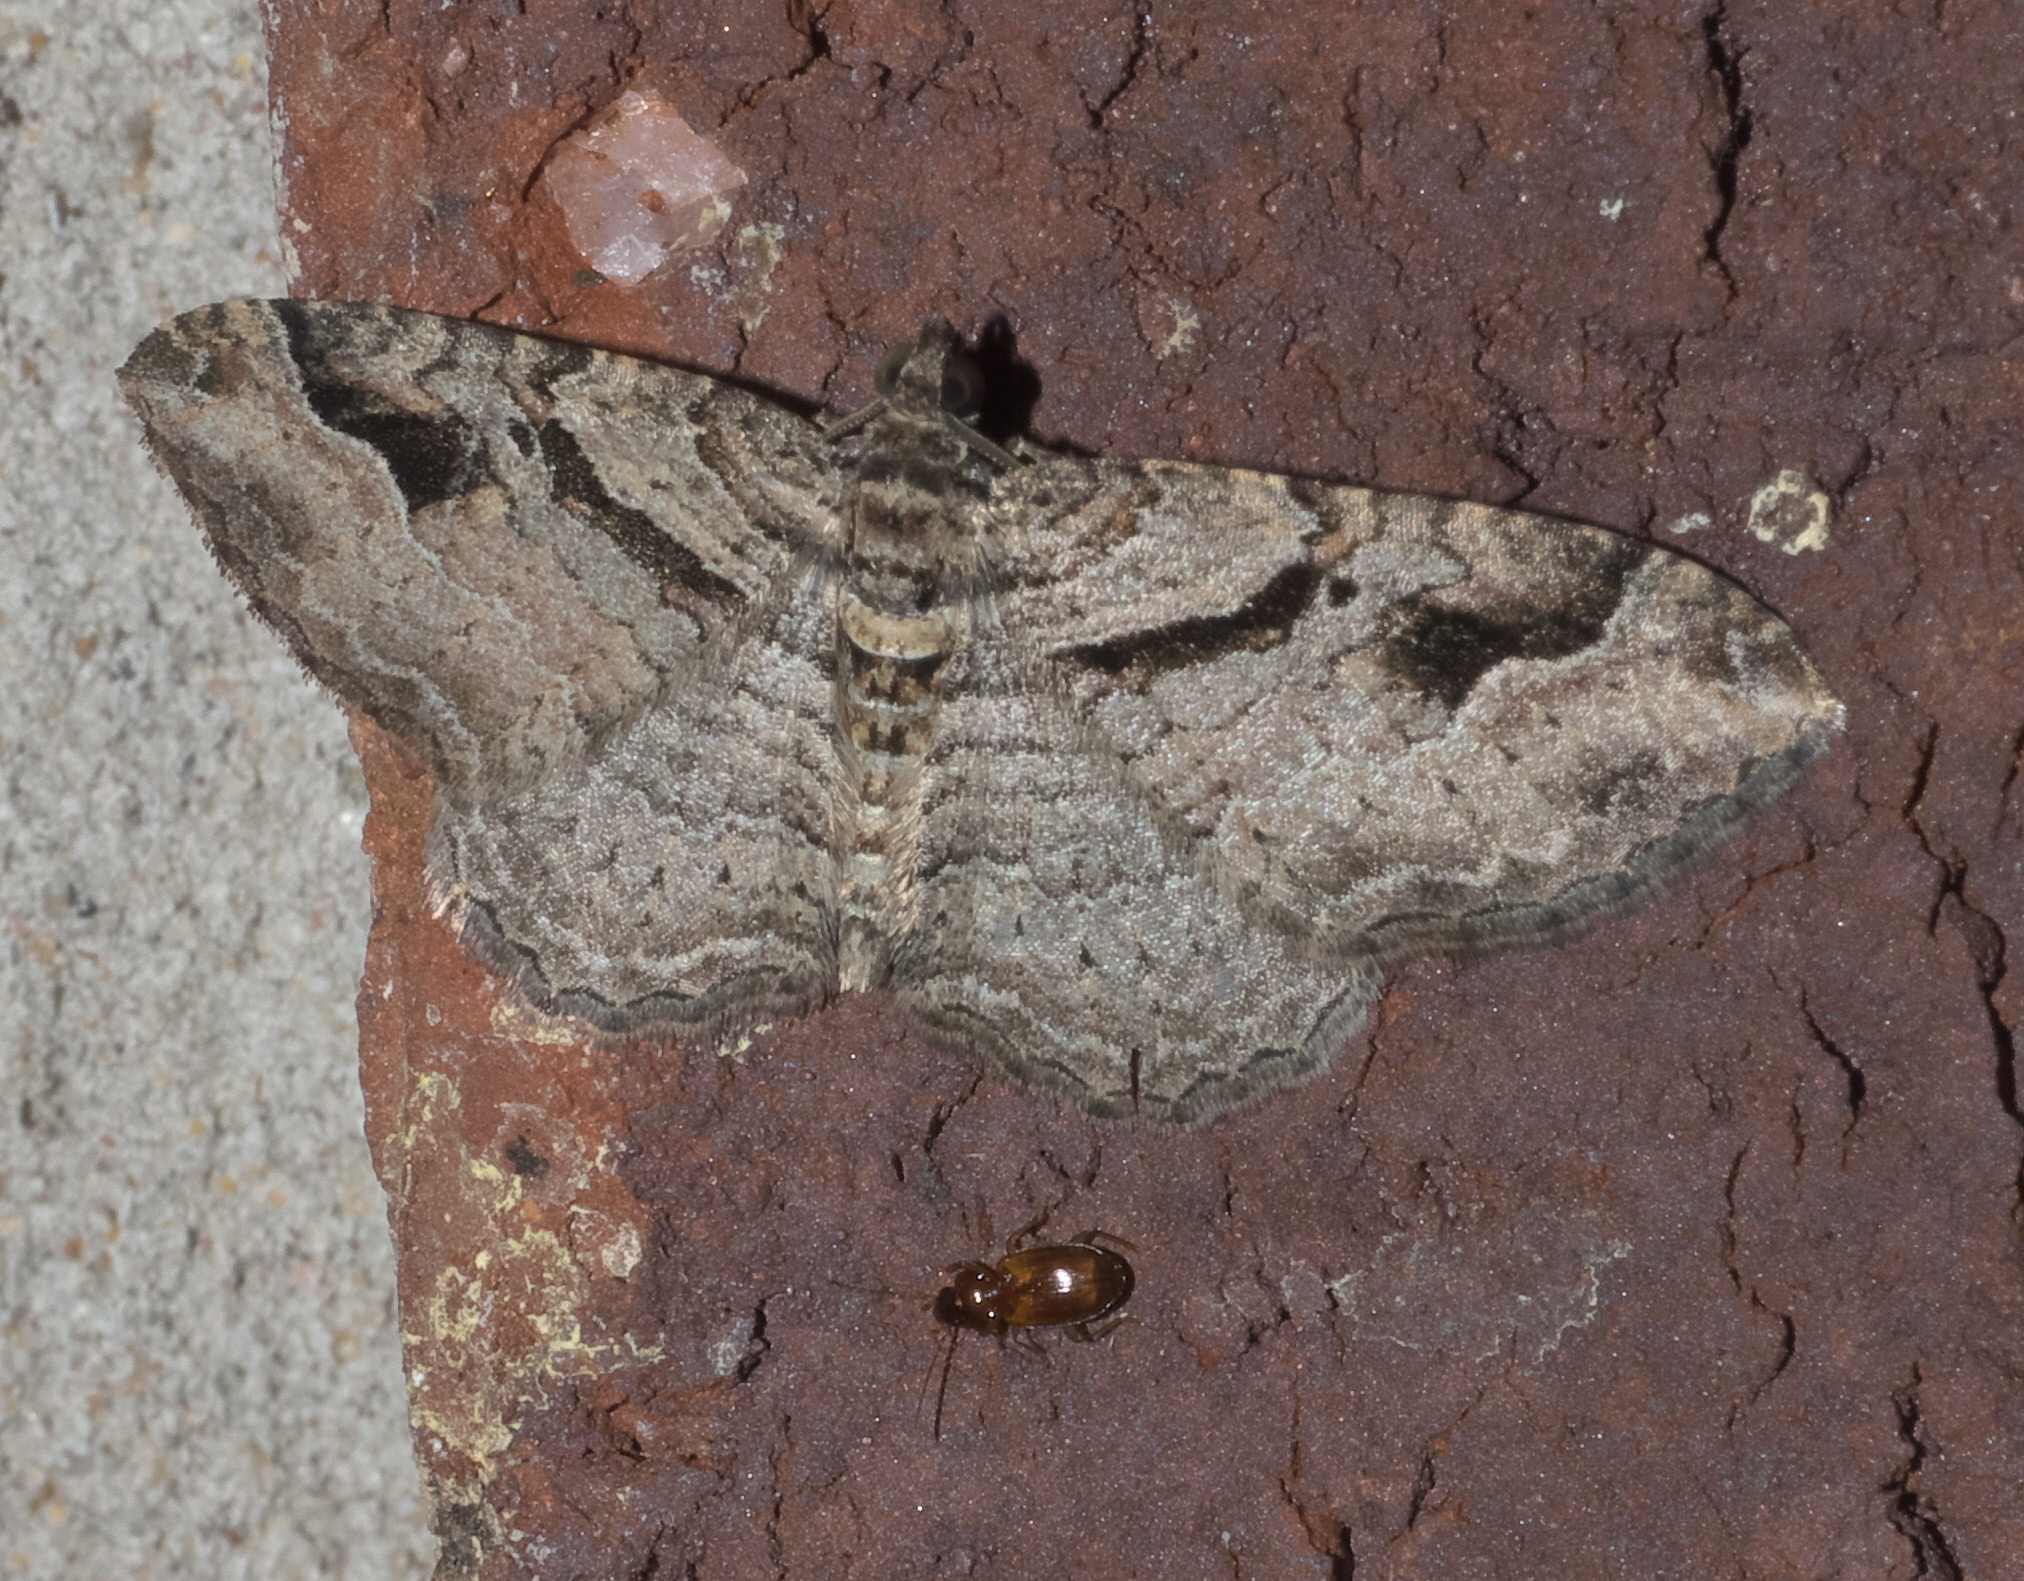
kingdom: Animalia
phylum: Arthropoda
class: Insecta
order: Lepidoptera
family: Geometridae
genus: Costaconvexa
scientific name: Costaconvexa centrostrigaria
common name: Bent-line carpet
